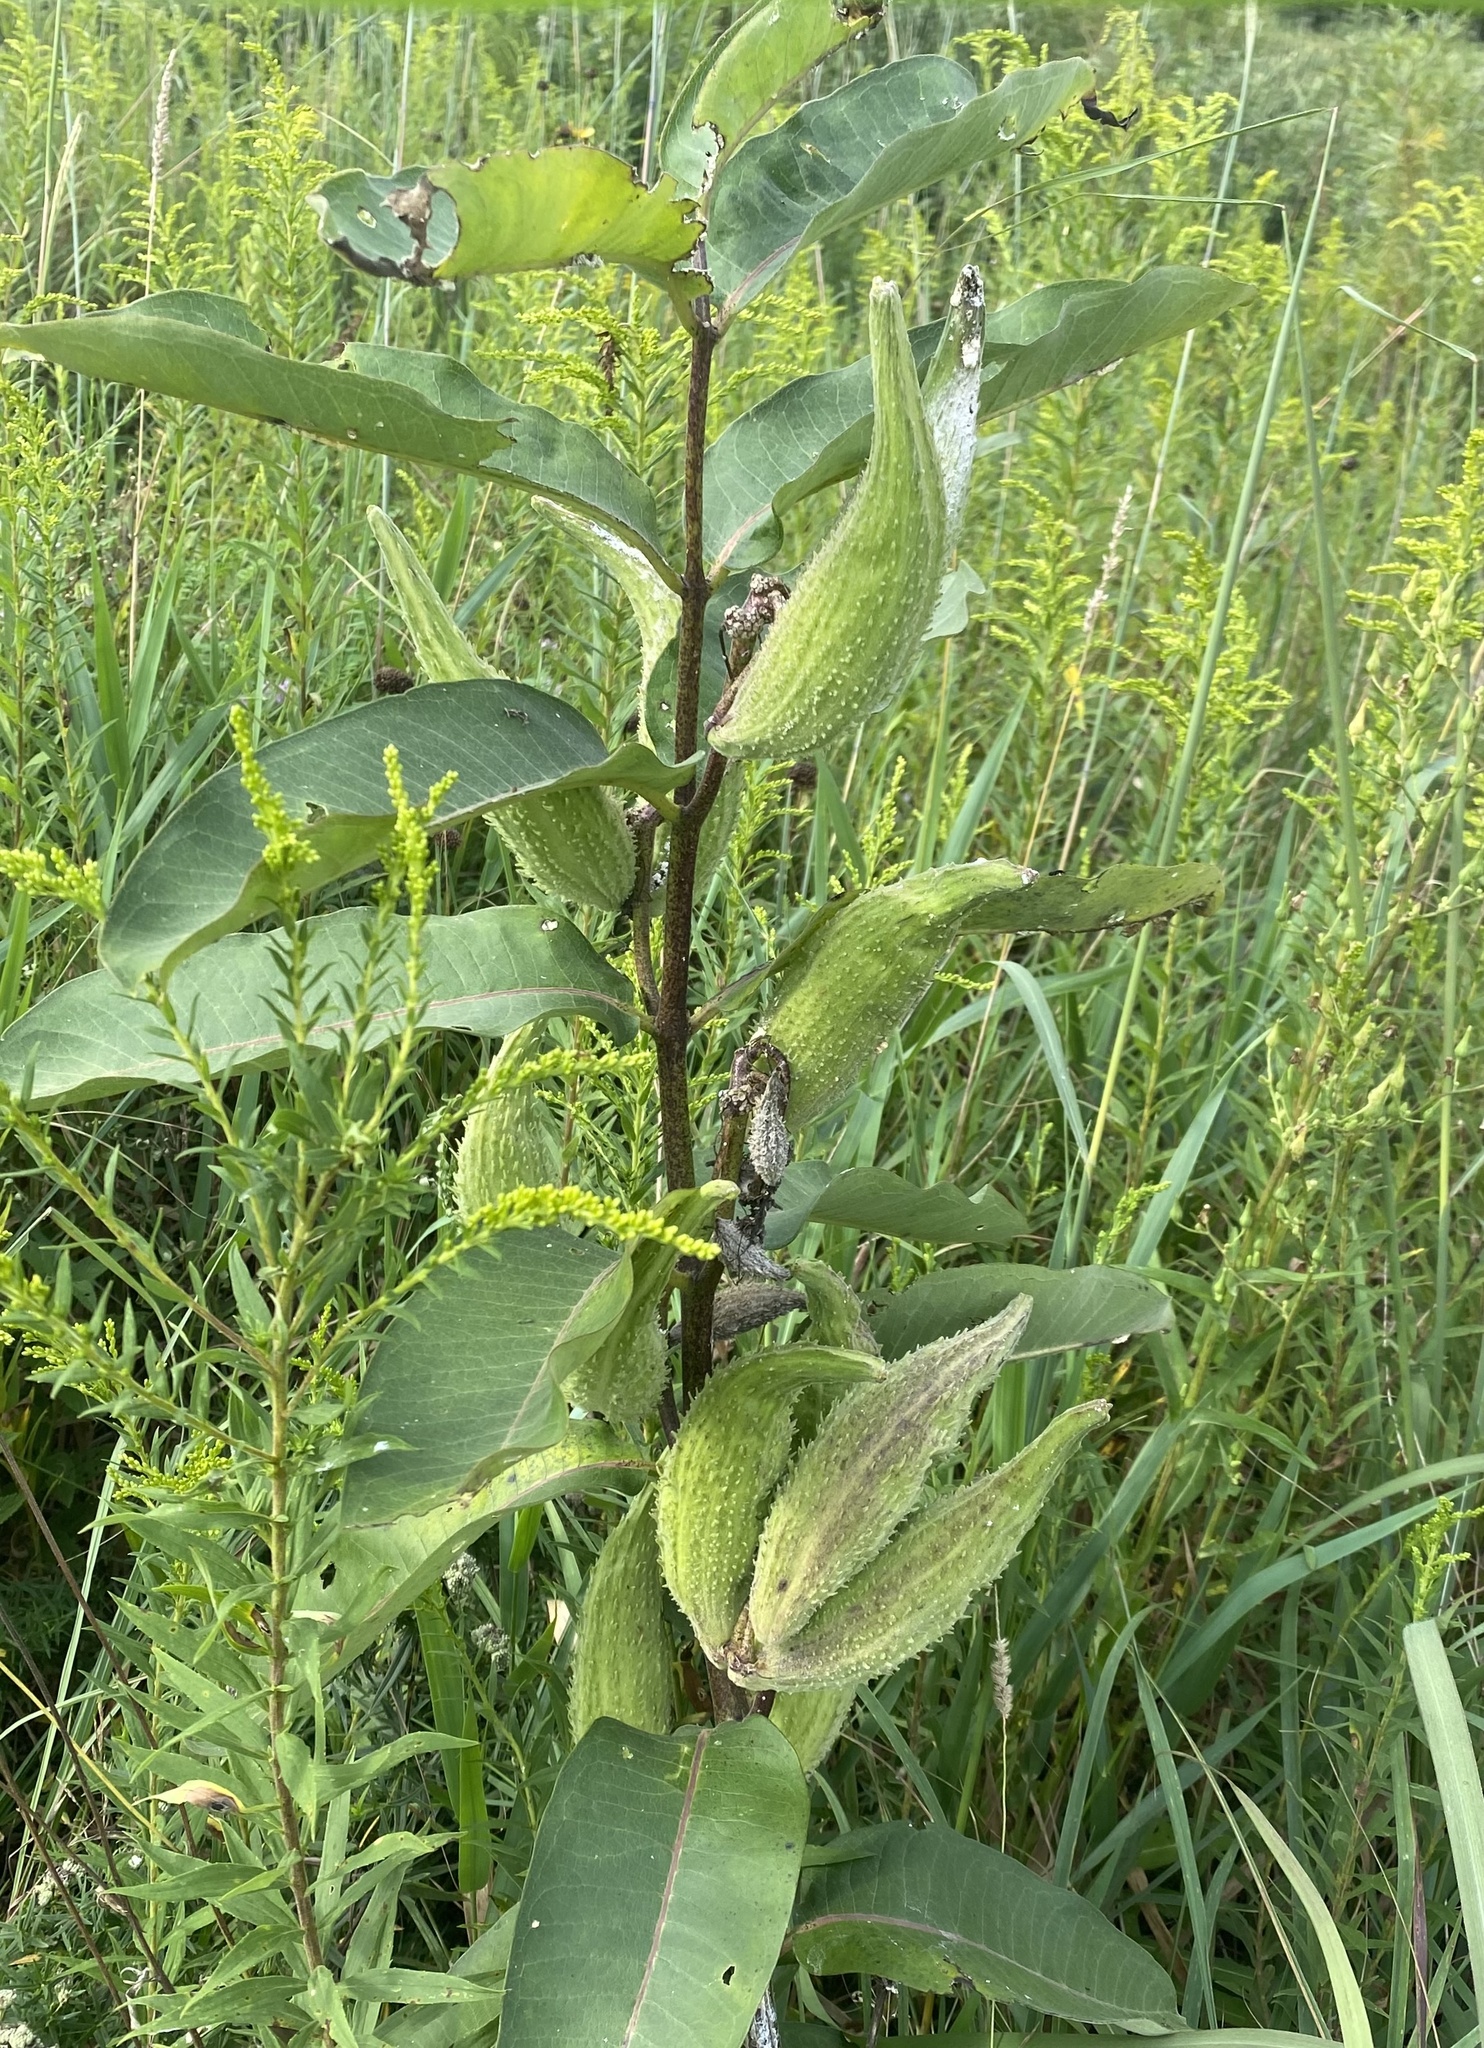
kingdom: Plantae
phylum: Tracheophyta
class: Magnoliopsida
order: Gentianales
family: Apocynaceae
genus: Asclepias
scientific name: Asclepias syriaca
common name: Common milkweed
